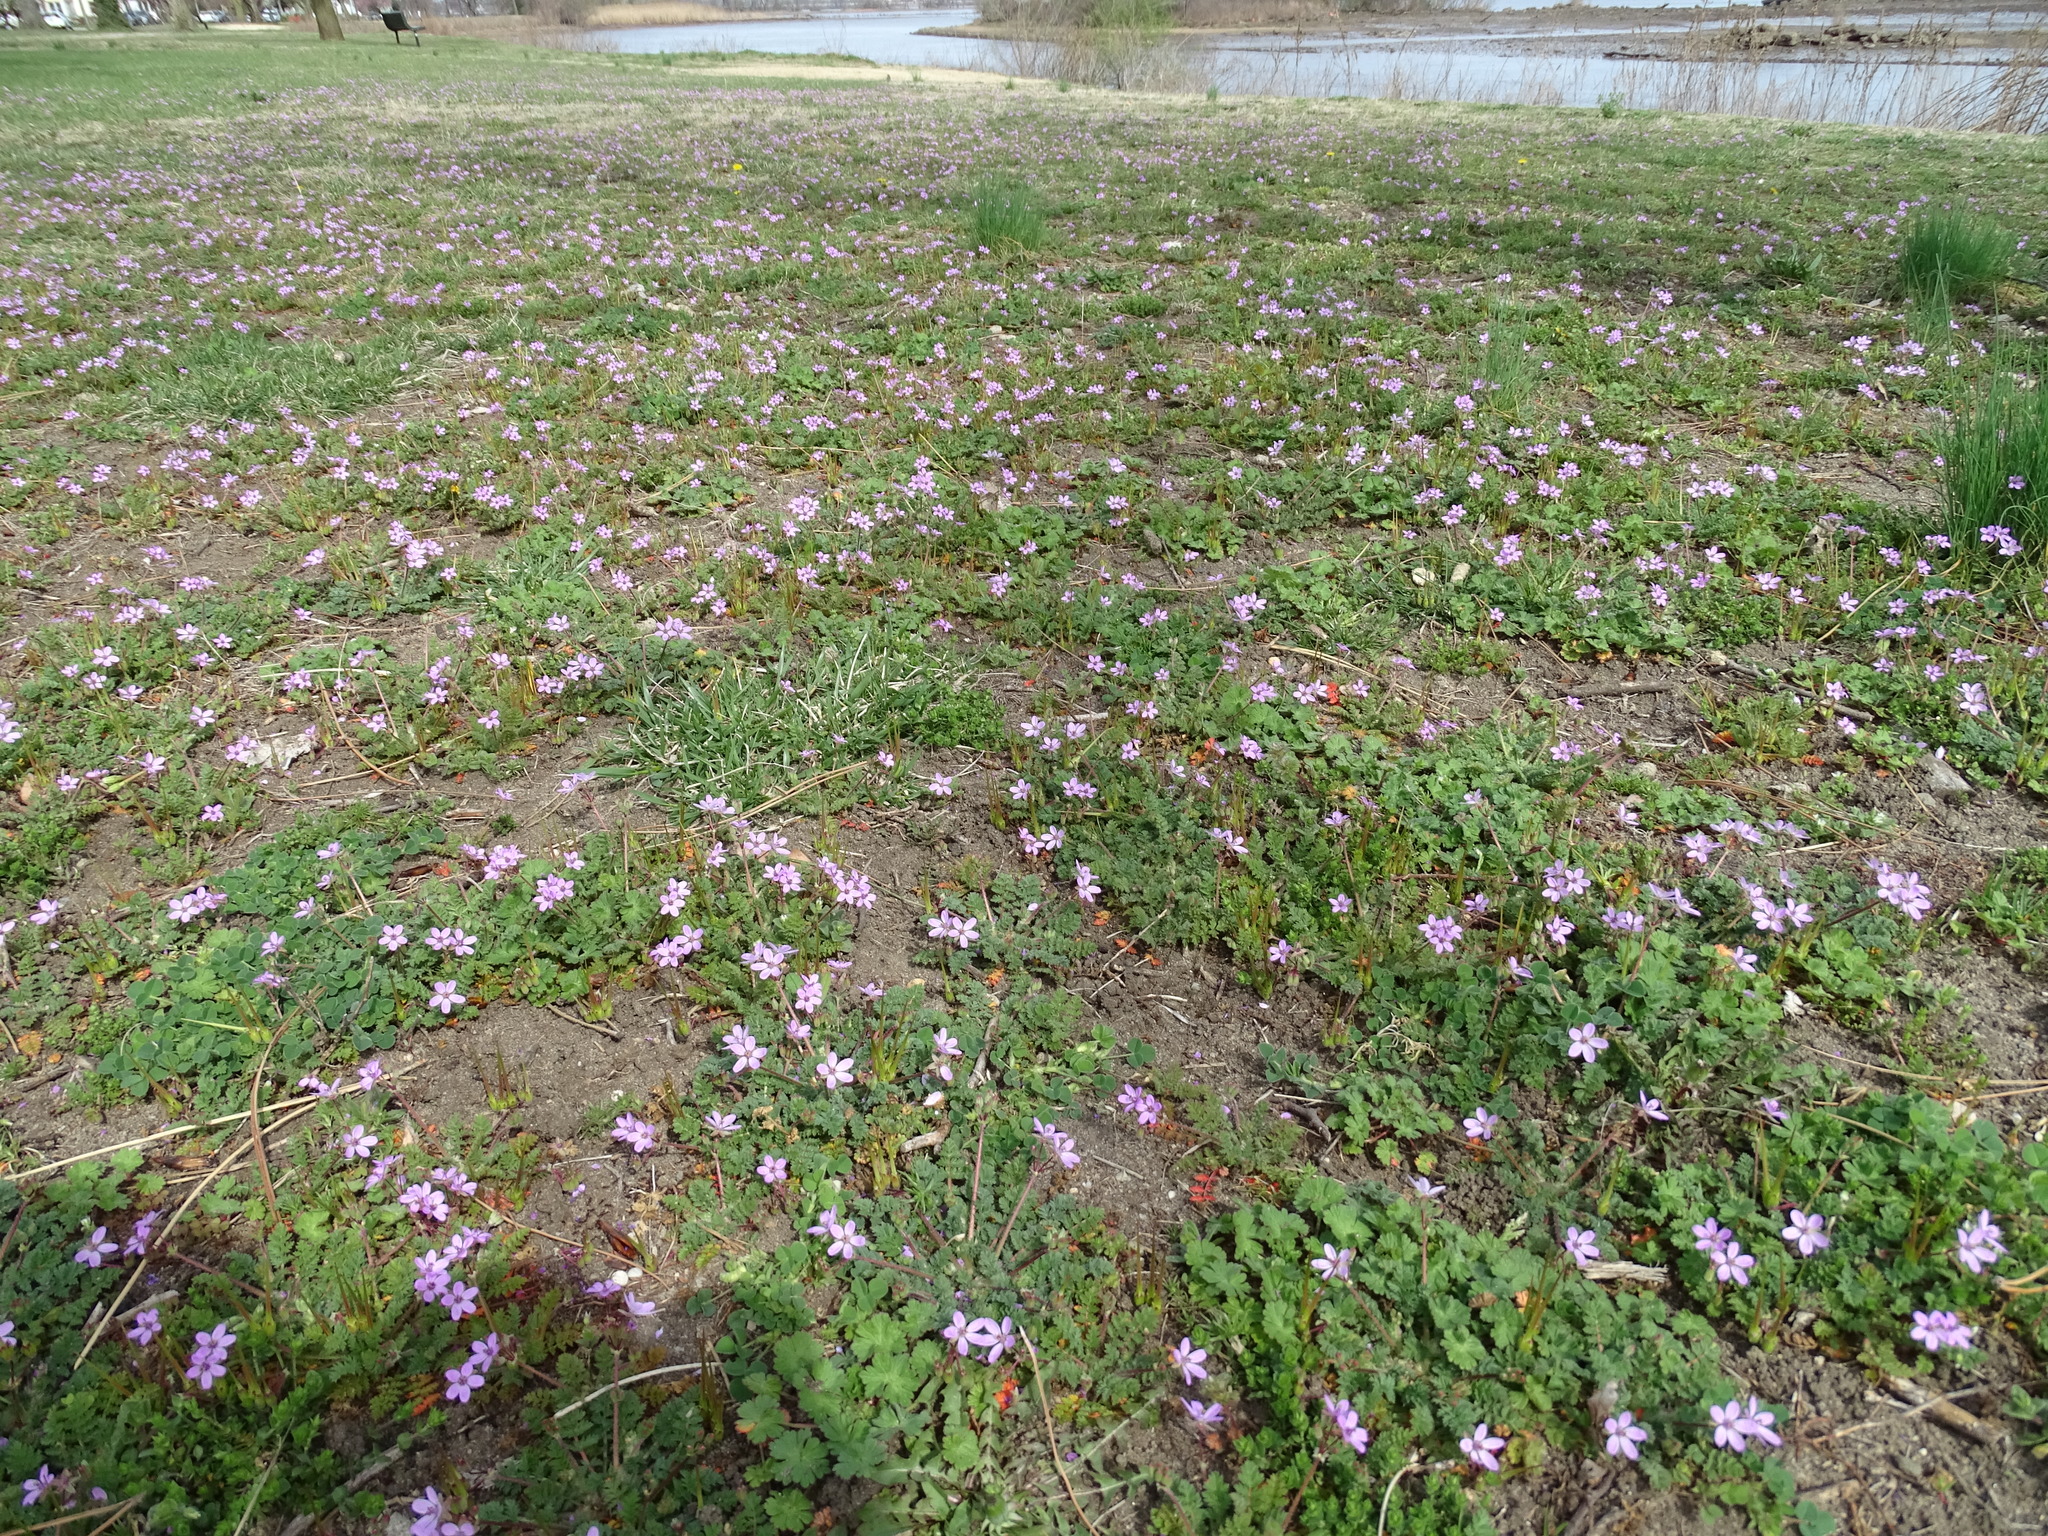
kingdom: Plantae
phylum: Tracheophyta
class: Magnoliopsida
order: Geraniales
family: Geraniaceae
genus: Erodium
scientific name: Erodium cicutarium
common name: Common stork's-bill
